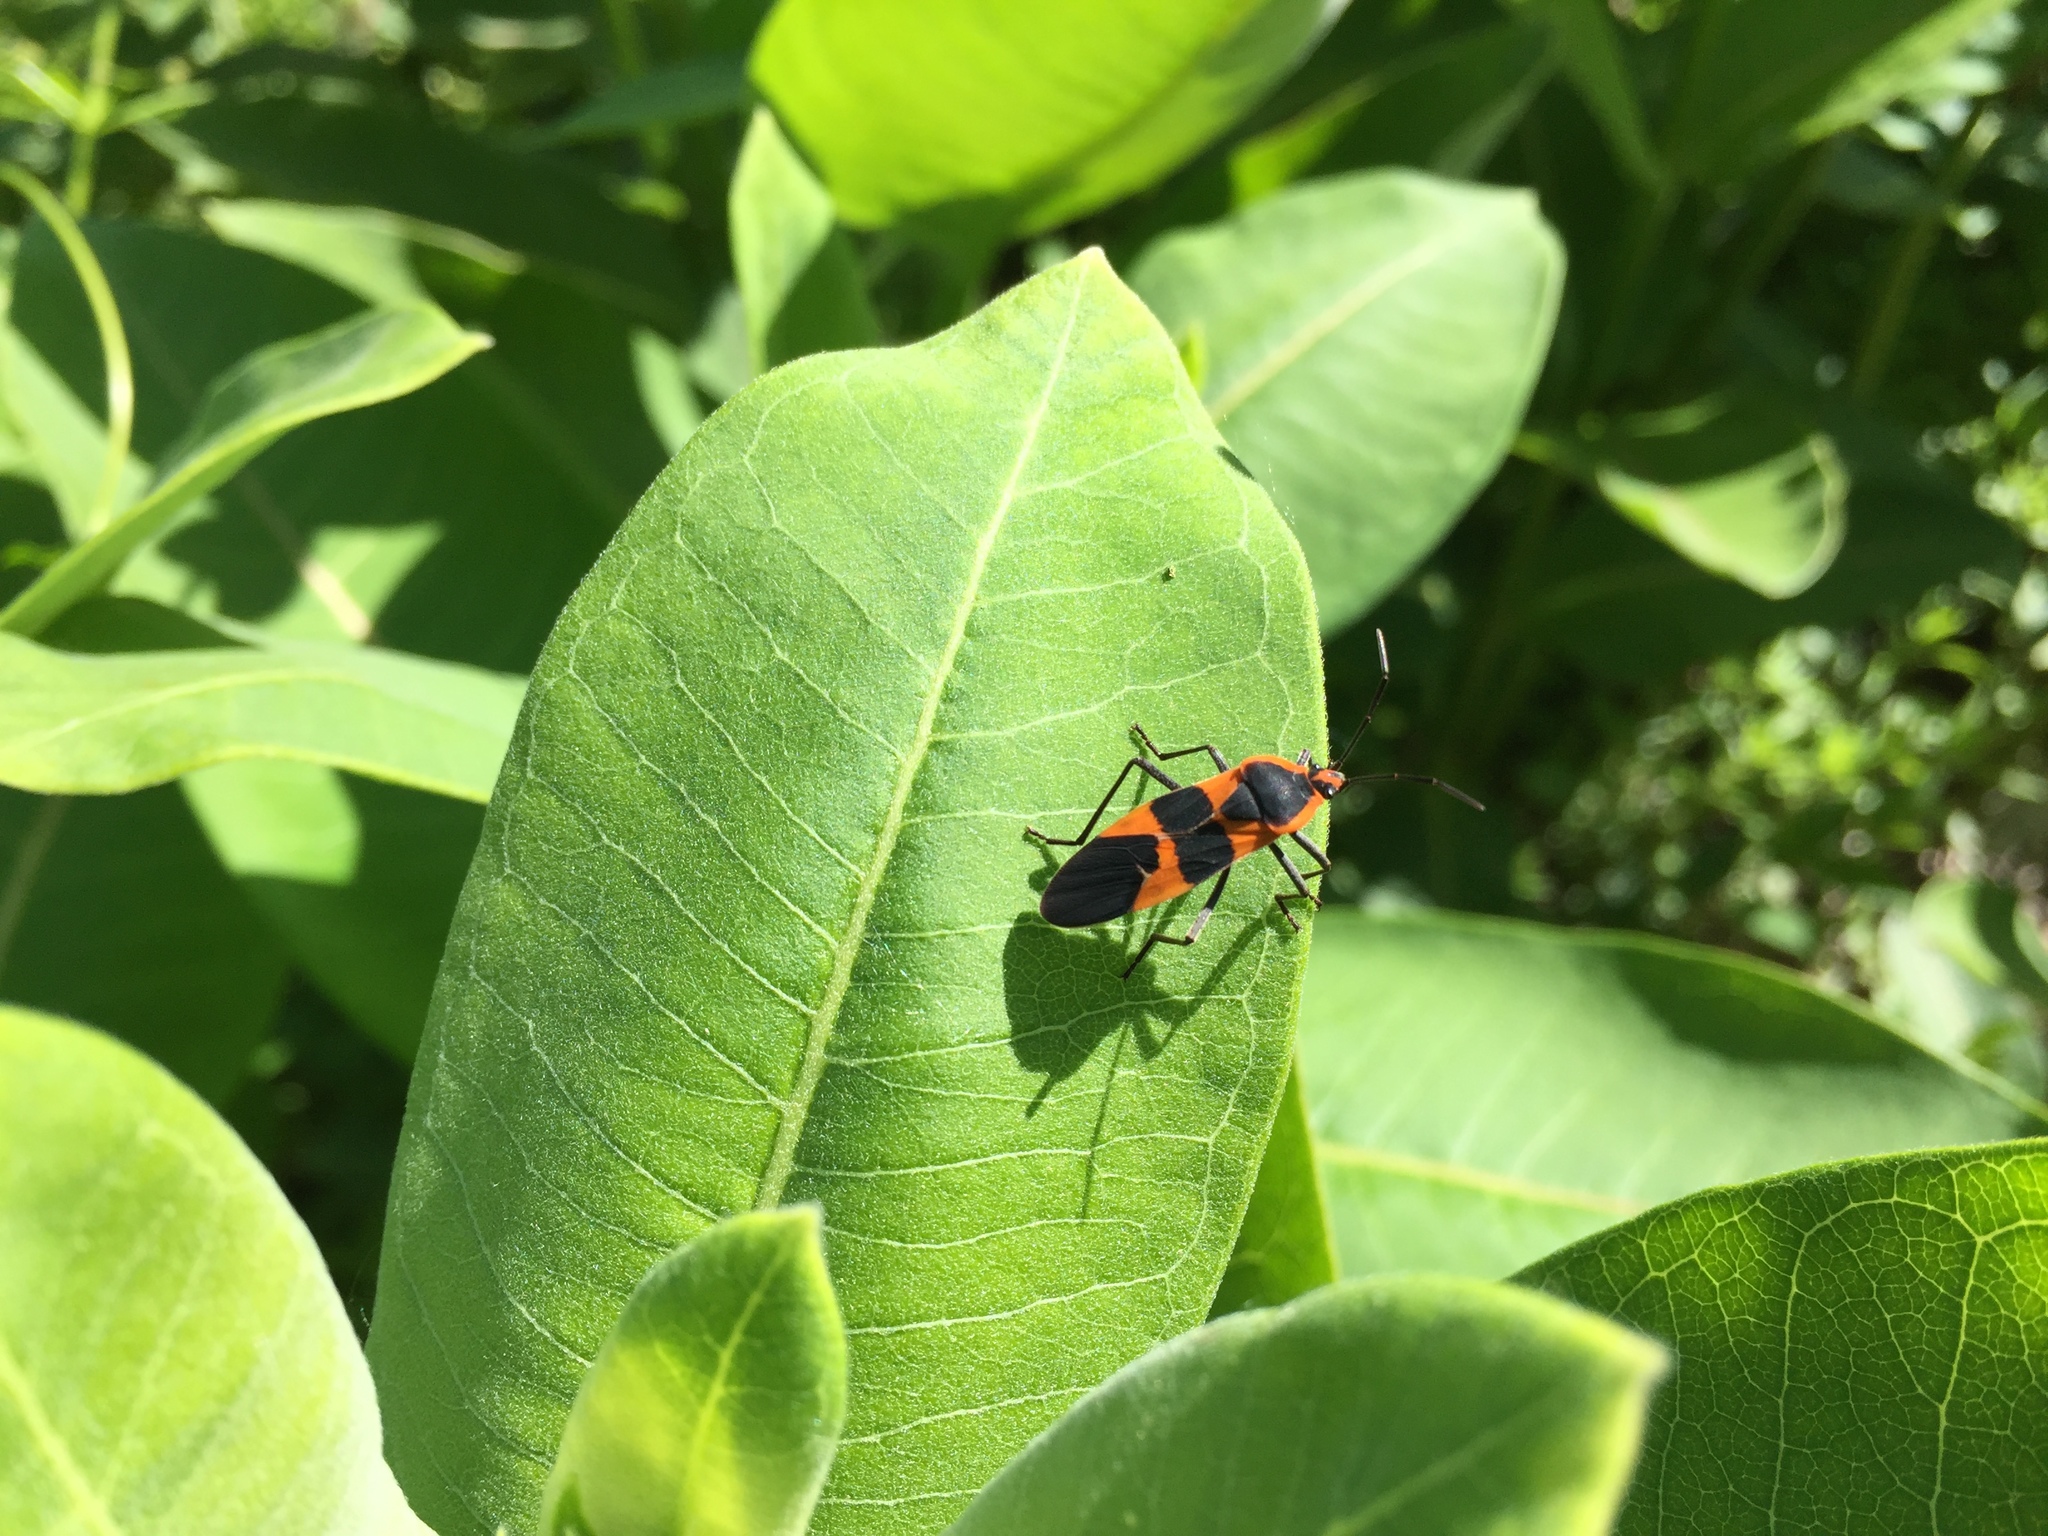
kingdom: Animalia
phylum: Arthropoda
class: Insecta
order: Hemiptera
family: Lygaeidae
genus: Oncopeltus
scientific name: Oncopeltus fasciatus
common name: Large milkweed bug
